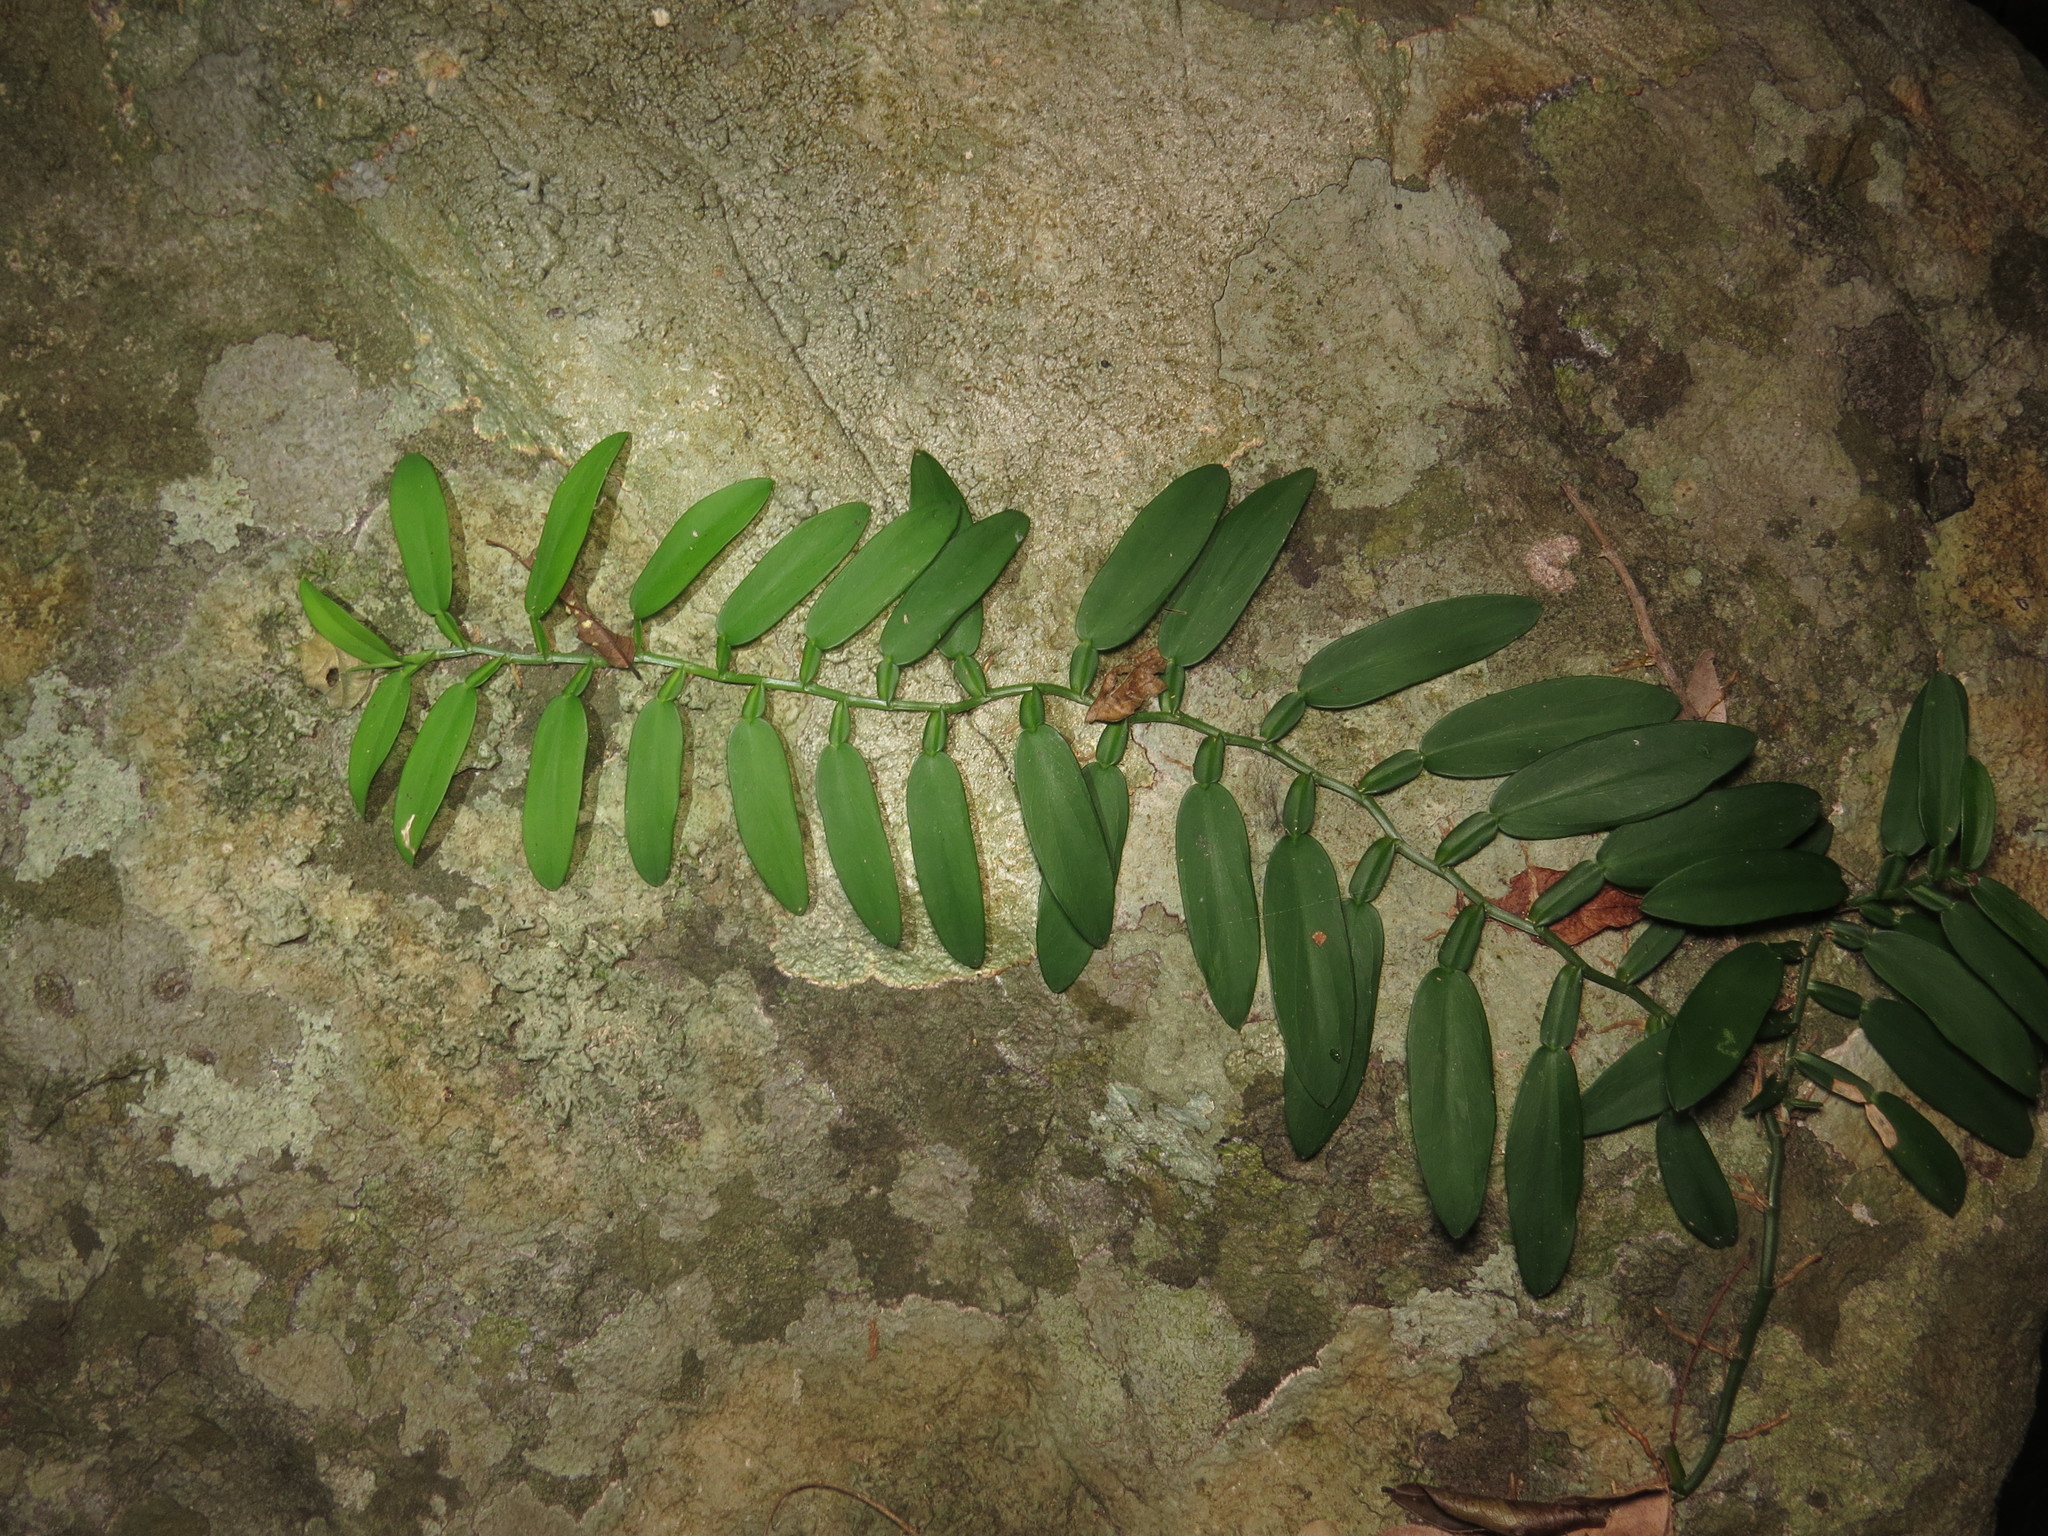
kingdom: Plantae
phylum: Tracheophyta
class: Liliopsida
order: Alismatales
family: Araceae
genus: Pothos
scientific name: Pothos chinensis
